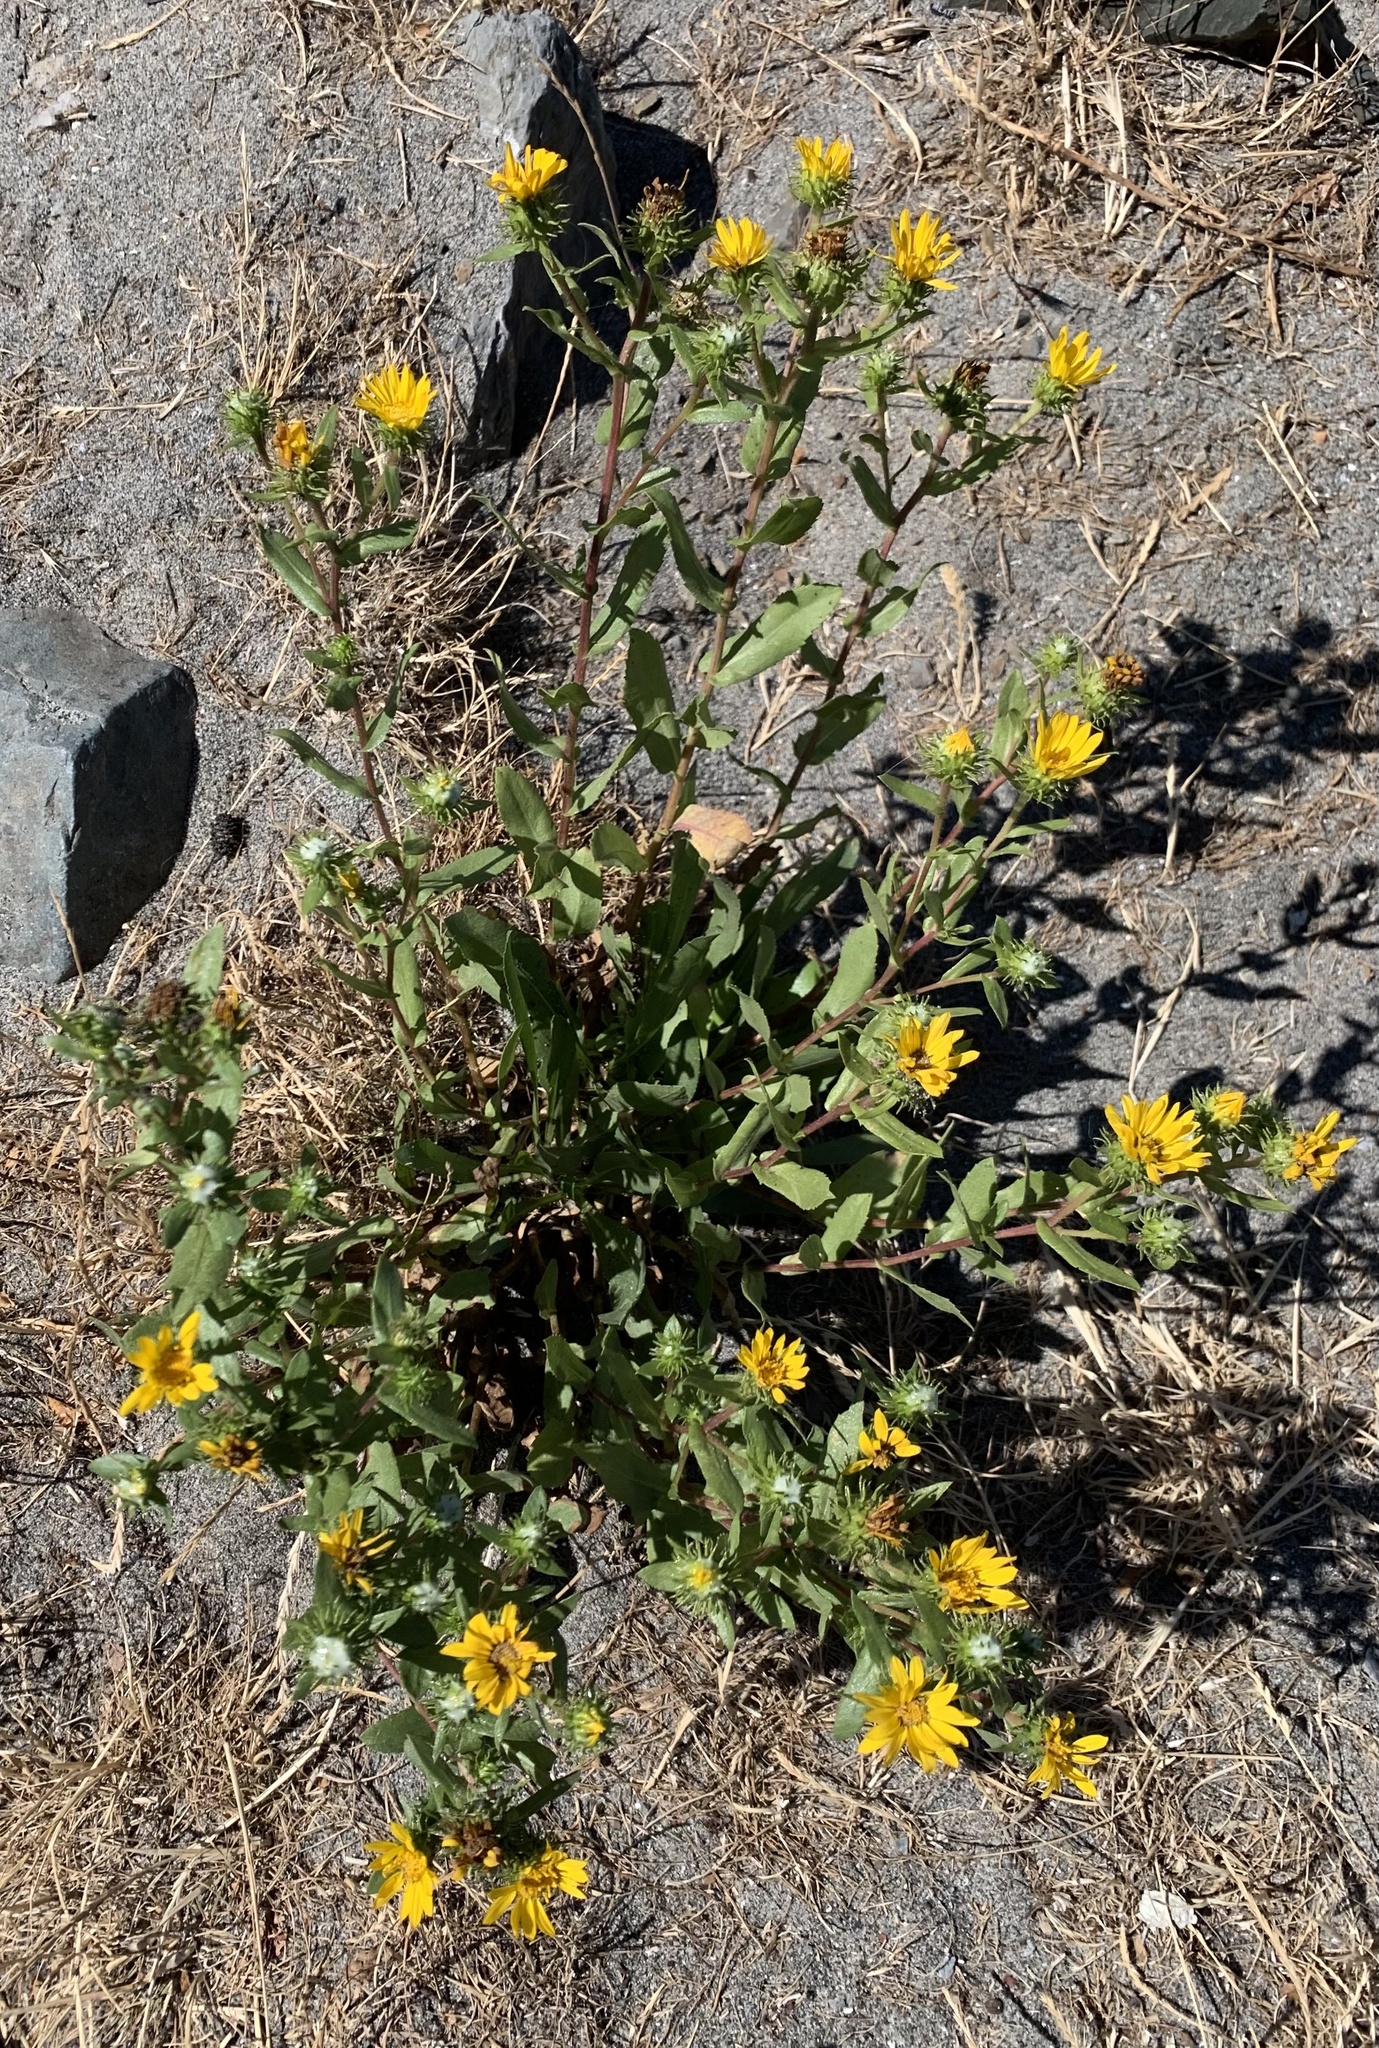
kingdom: Plantae
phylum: Tracheophyta
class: Magnoliopsida
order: Asterales
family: Asteraceae
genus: Grindelia
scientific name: Grindelia integrifolia
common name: Puget sound gumweed
